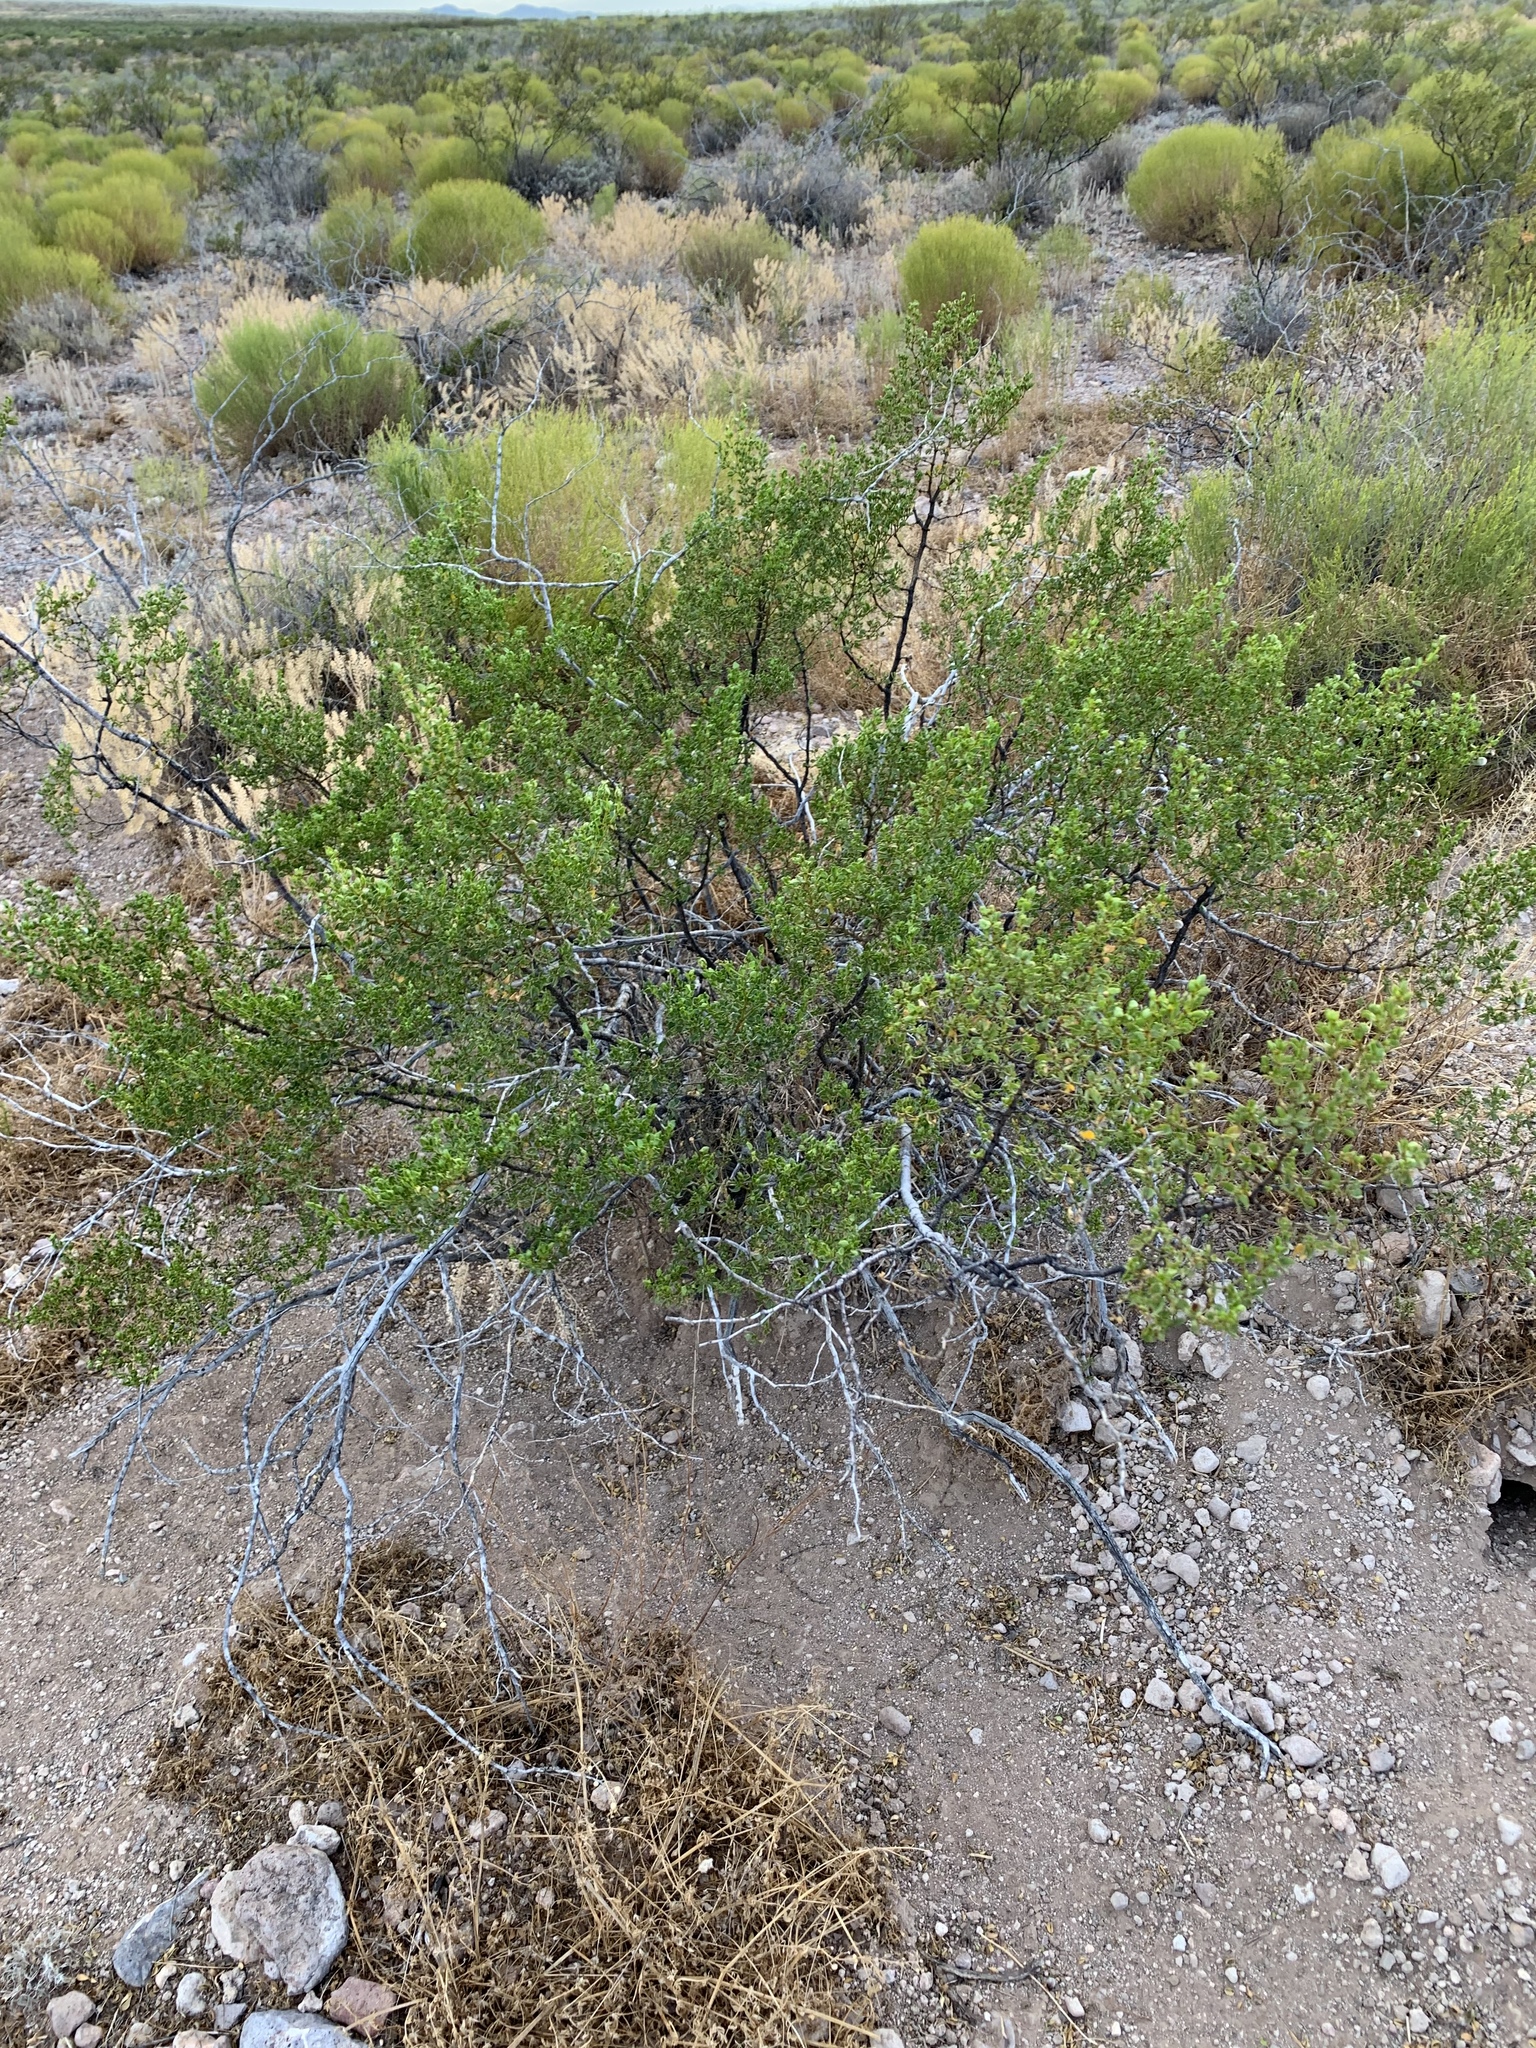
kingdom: Plantae
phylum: Tracheophyta
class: Magnoliopsida
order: Zygophyllales
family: Zygophyllaceae
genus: Larrea
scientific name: Larrea tridentata
